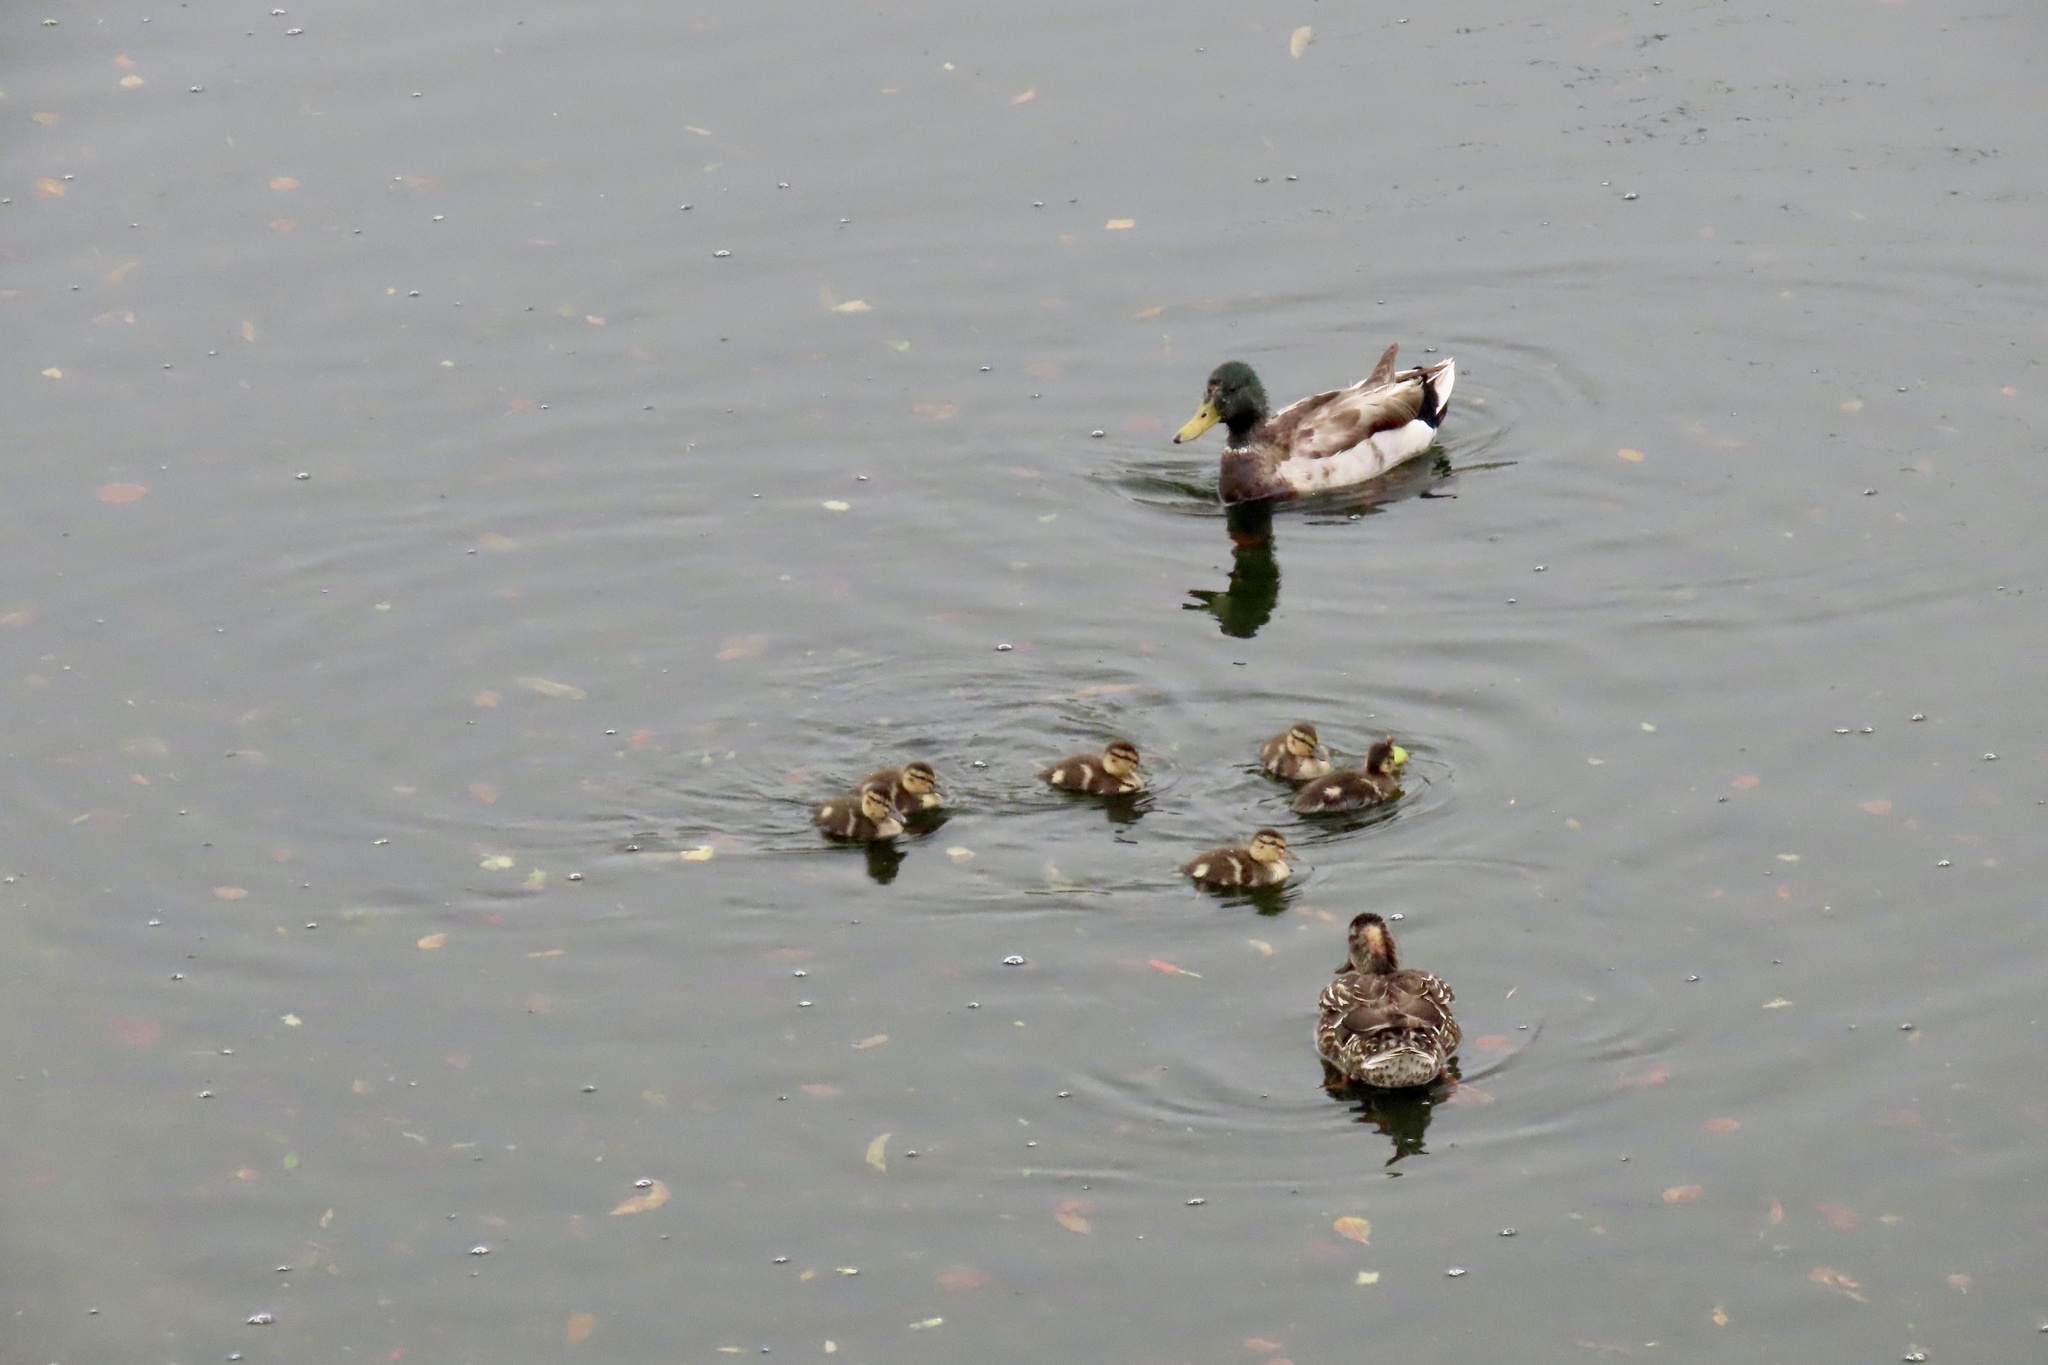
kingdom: Animalia
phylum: Chordata
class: Aves
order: Anseriformes
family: Anatidae
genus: Anas
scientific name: Anas platyrhynchos
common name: Mallard
